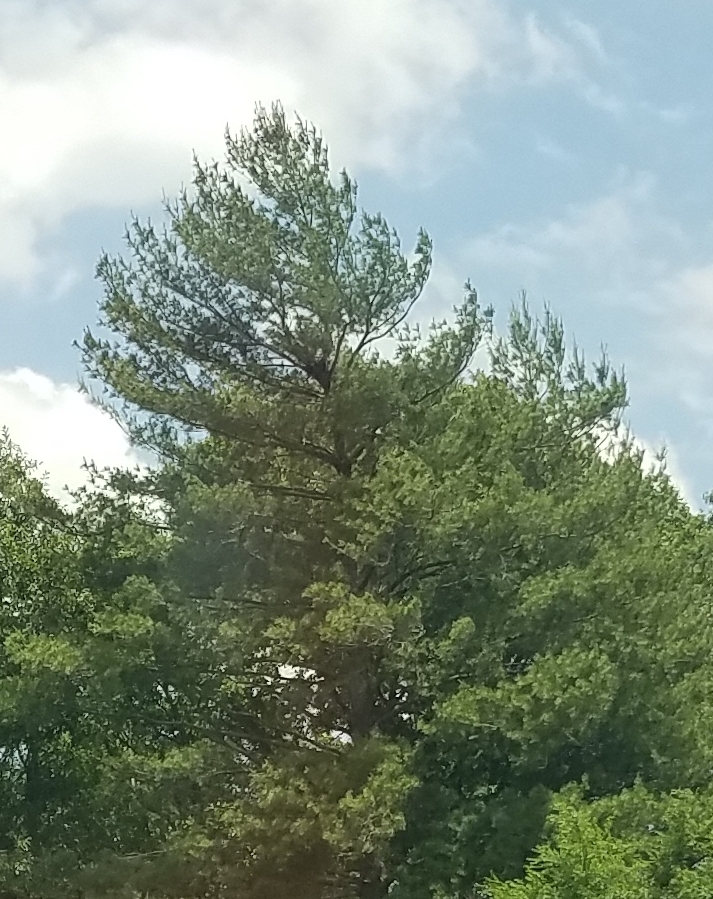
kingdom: Plantae
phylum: Tracheophyta
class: Pinopsida
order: Pinales
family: Pinaceae
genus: Pinus
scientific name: Pinus strobus
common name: Weymouth pine
